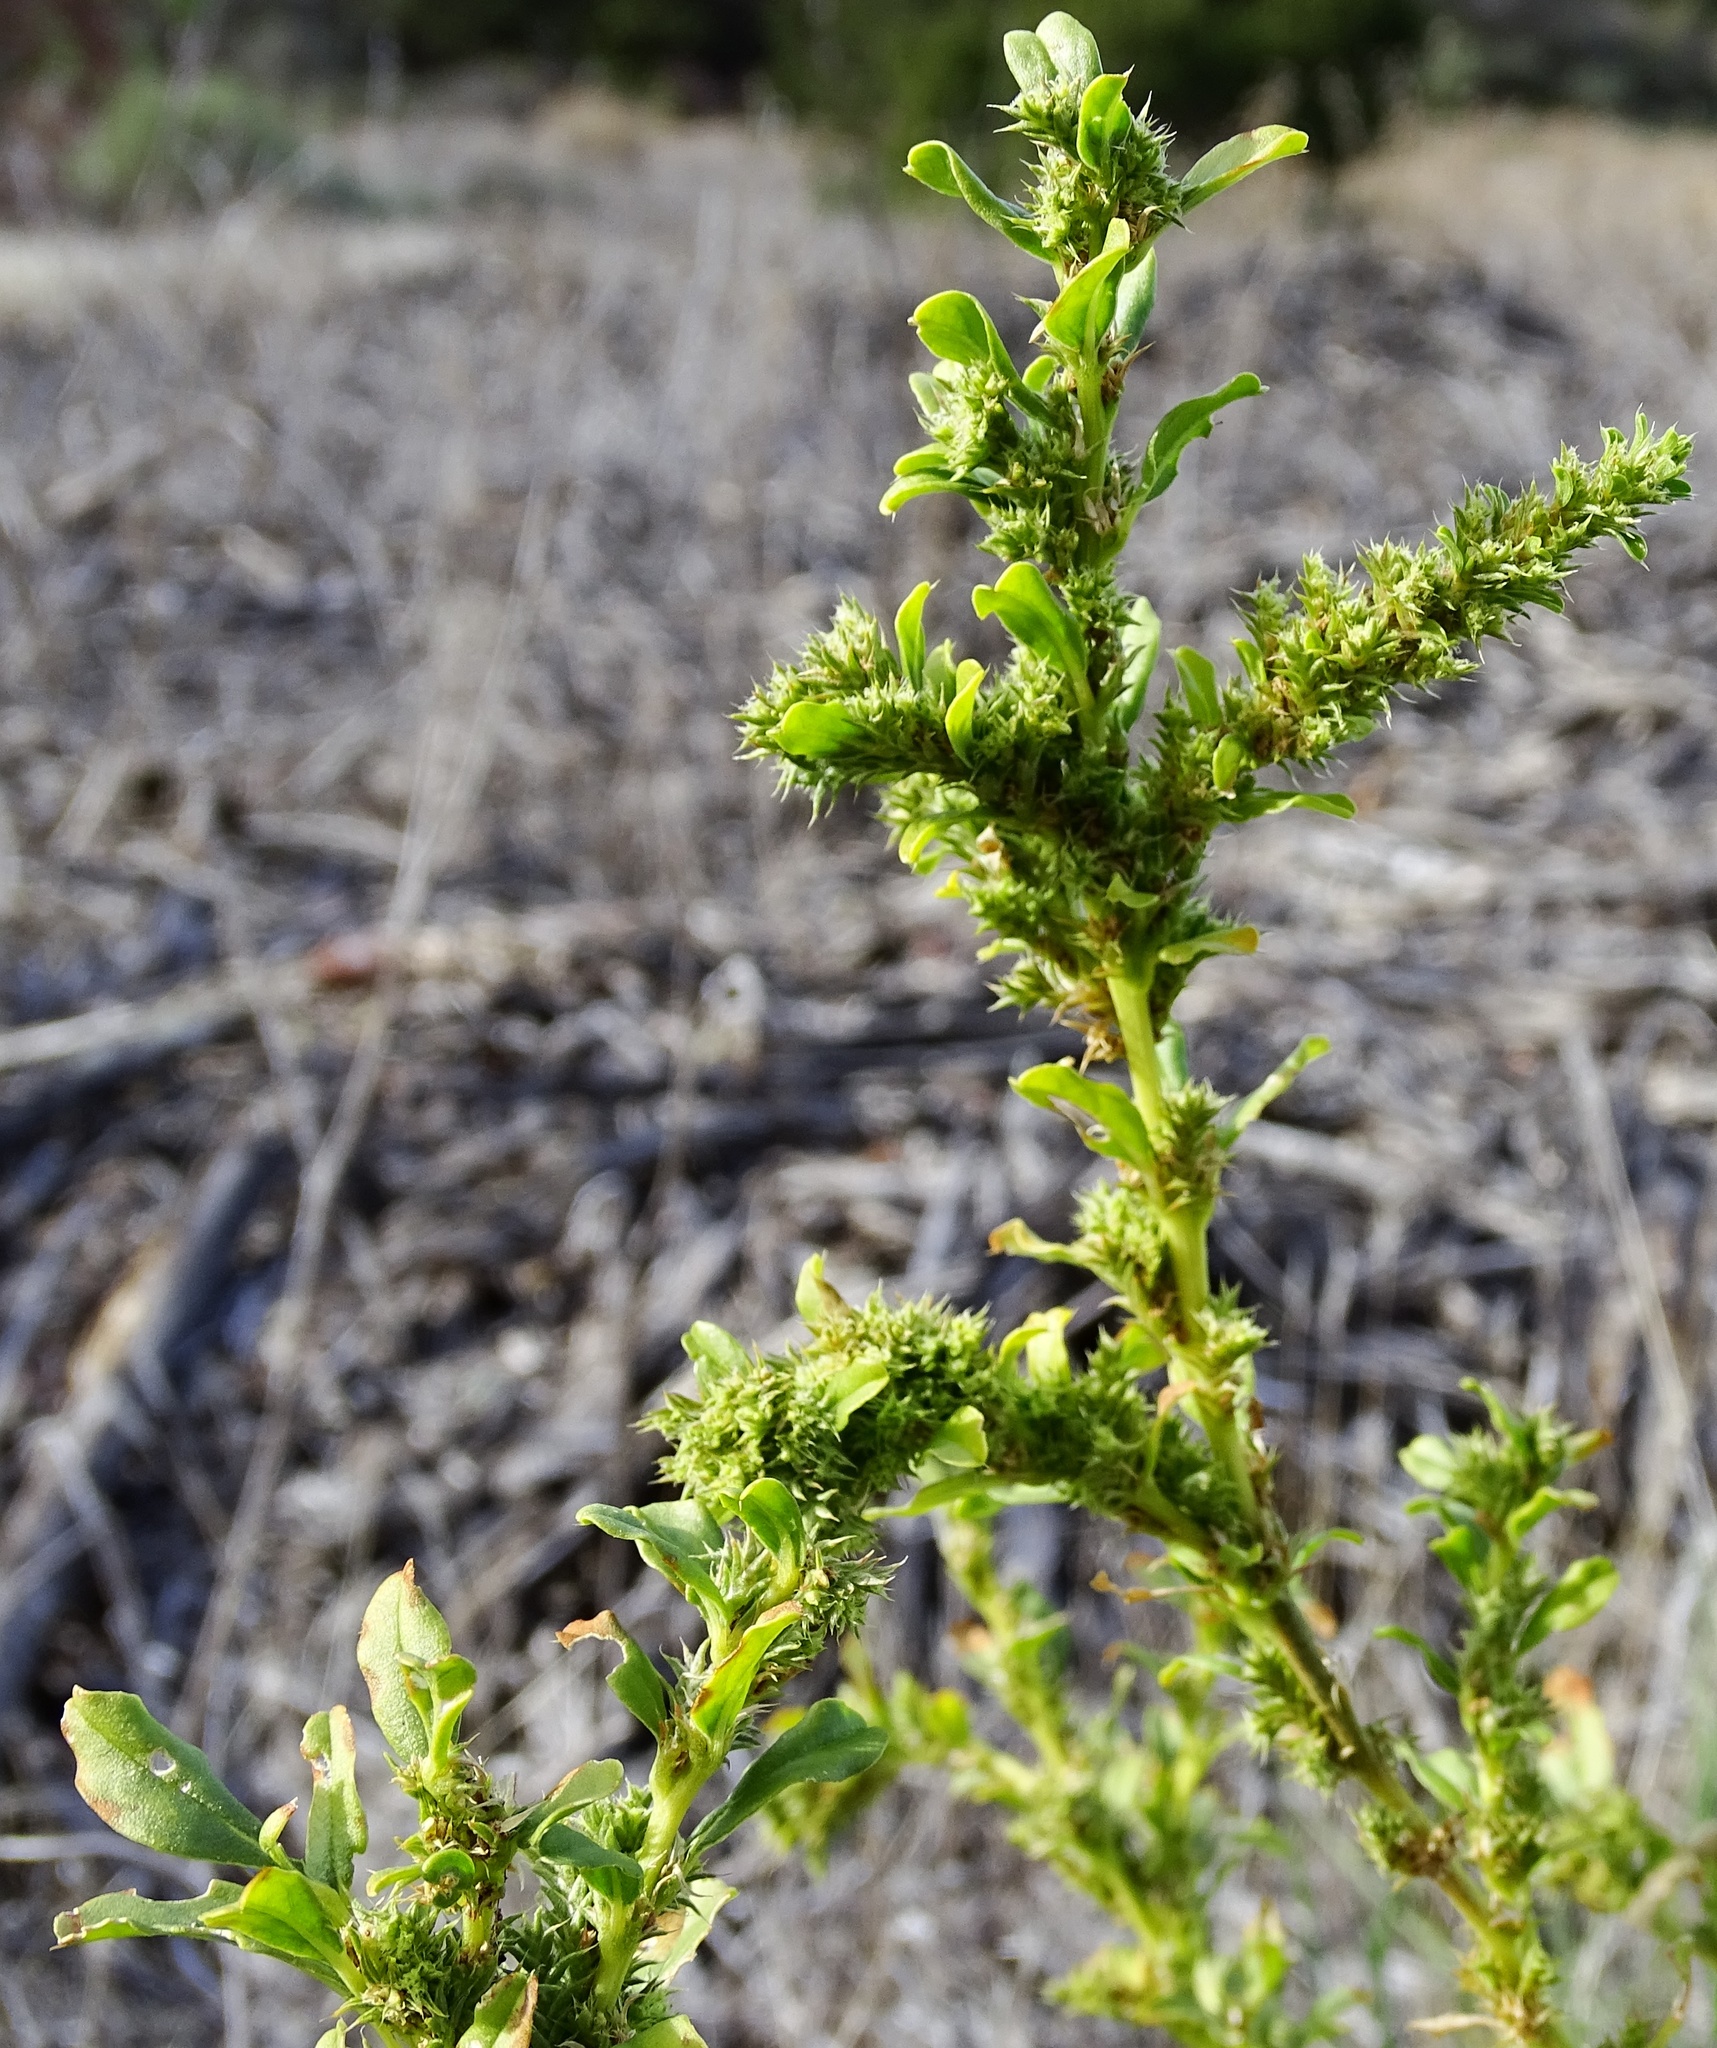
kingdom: Plantae
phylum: Tracheophyta
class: Magnoliopsida
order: Caryophyllales
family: Amaranthaceae
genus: Amaranthus
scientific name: Amaranthus albus
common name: White pigweed
